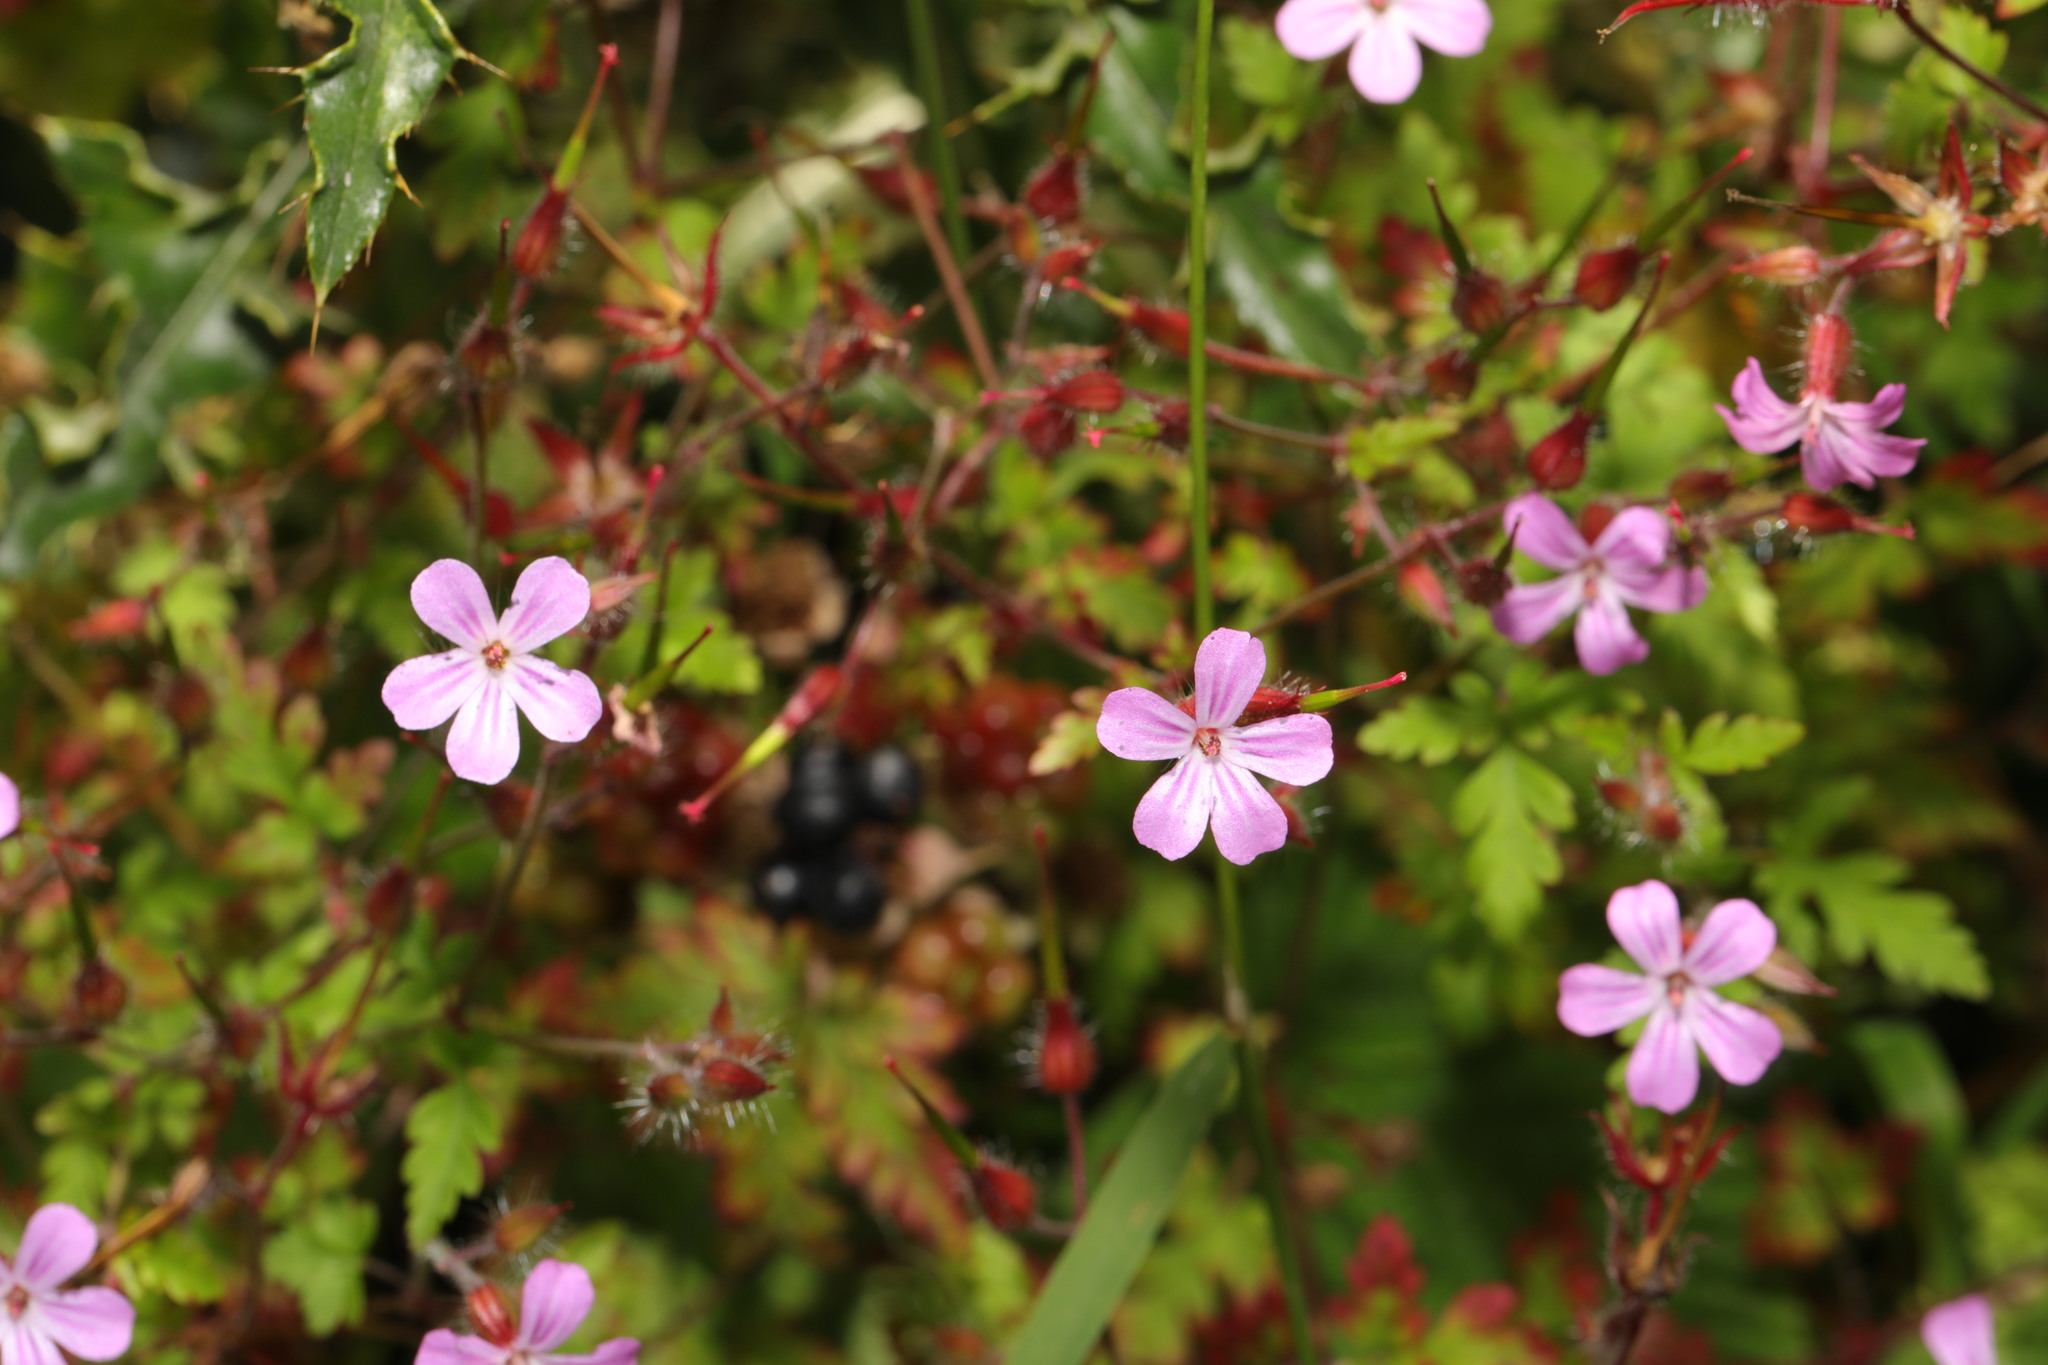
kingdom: Plantae
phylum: Tracheophyta
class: Magnoliopsida
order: Geraniales
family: Geraniaceae
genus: Geranium
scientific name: Geranium robertianum
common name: Herb-robert
